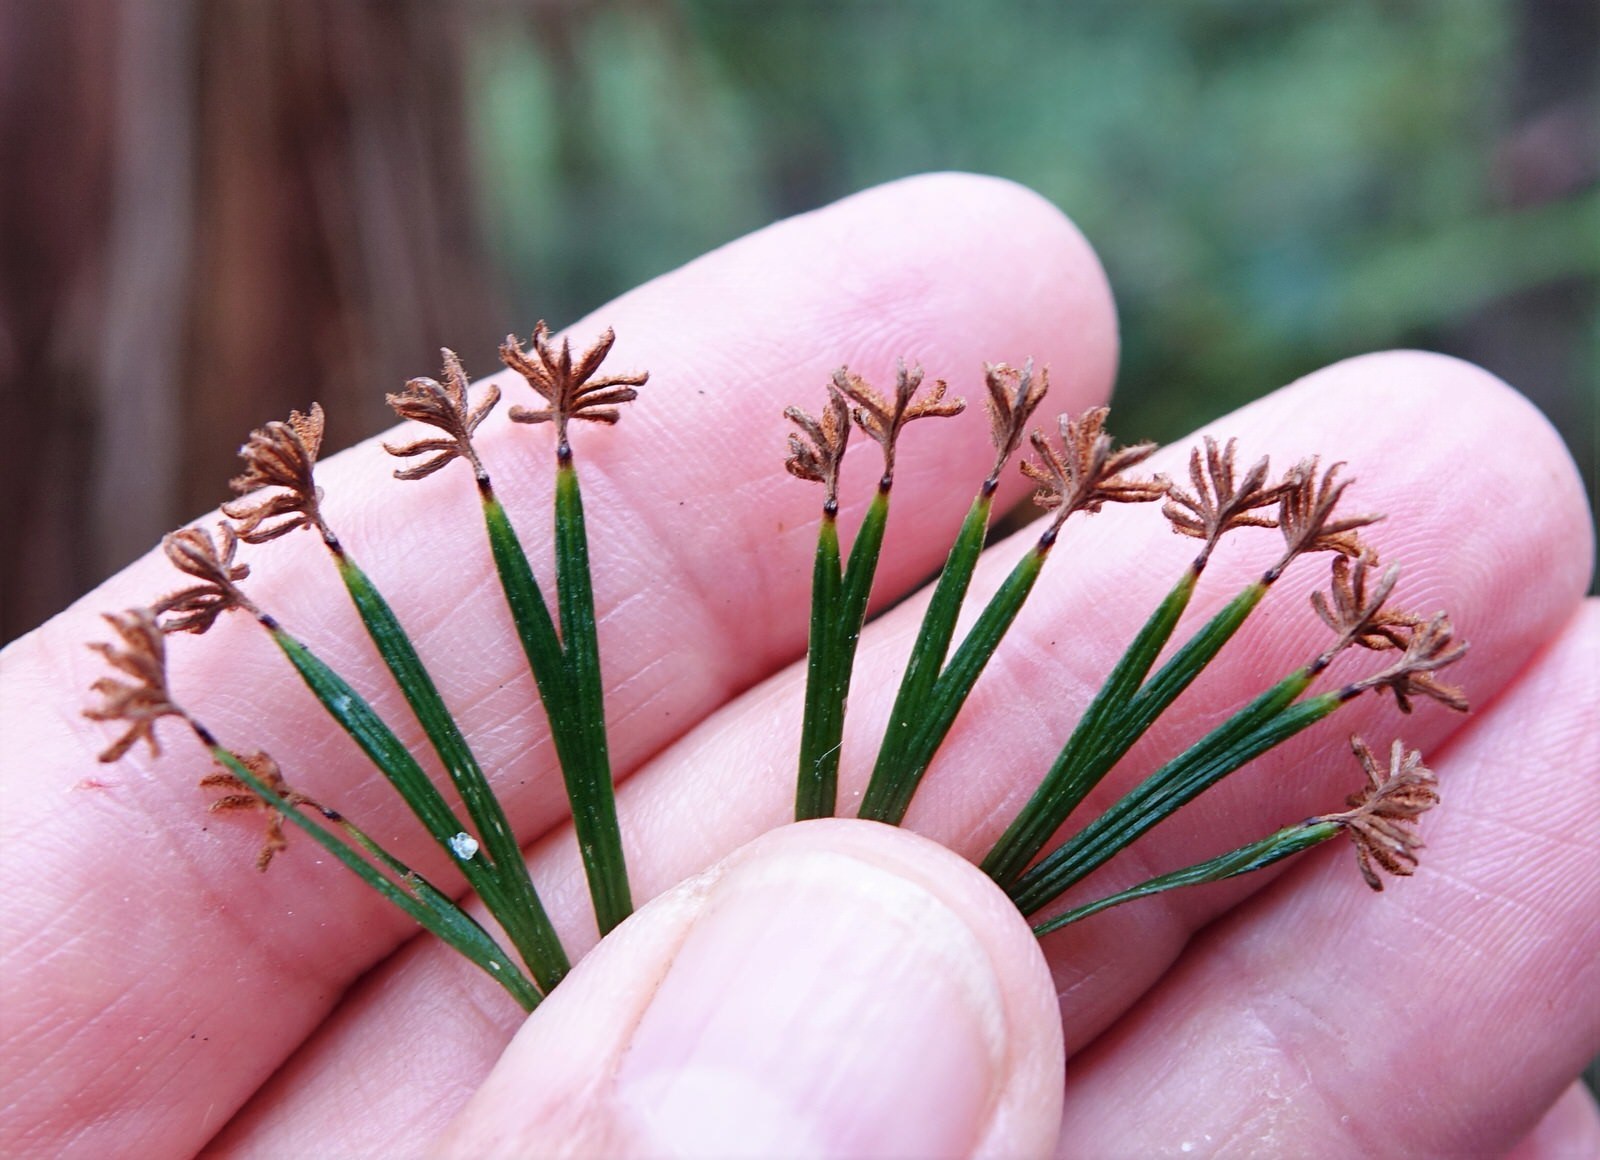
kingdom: Plantae
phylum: Tracheophyta
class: Polypodiopsida
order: Schizaeales
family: Schizaeaceae
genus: Schizaea
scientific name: Schizaea dichotoma
